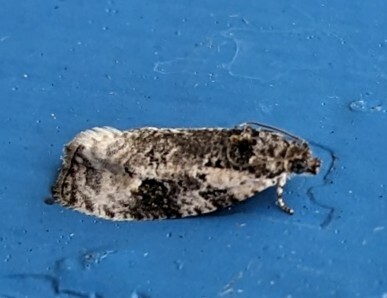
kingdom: Animalia
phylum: Arthropoda
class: Insecta
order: Lepidoptera
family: Tortricidae
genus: Apotomis
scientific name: Apotomis albeolana
